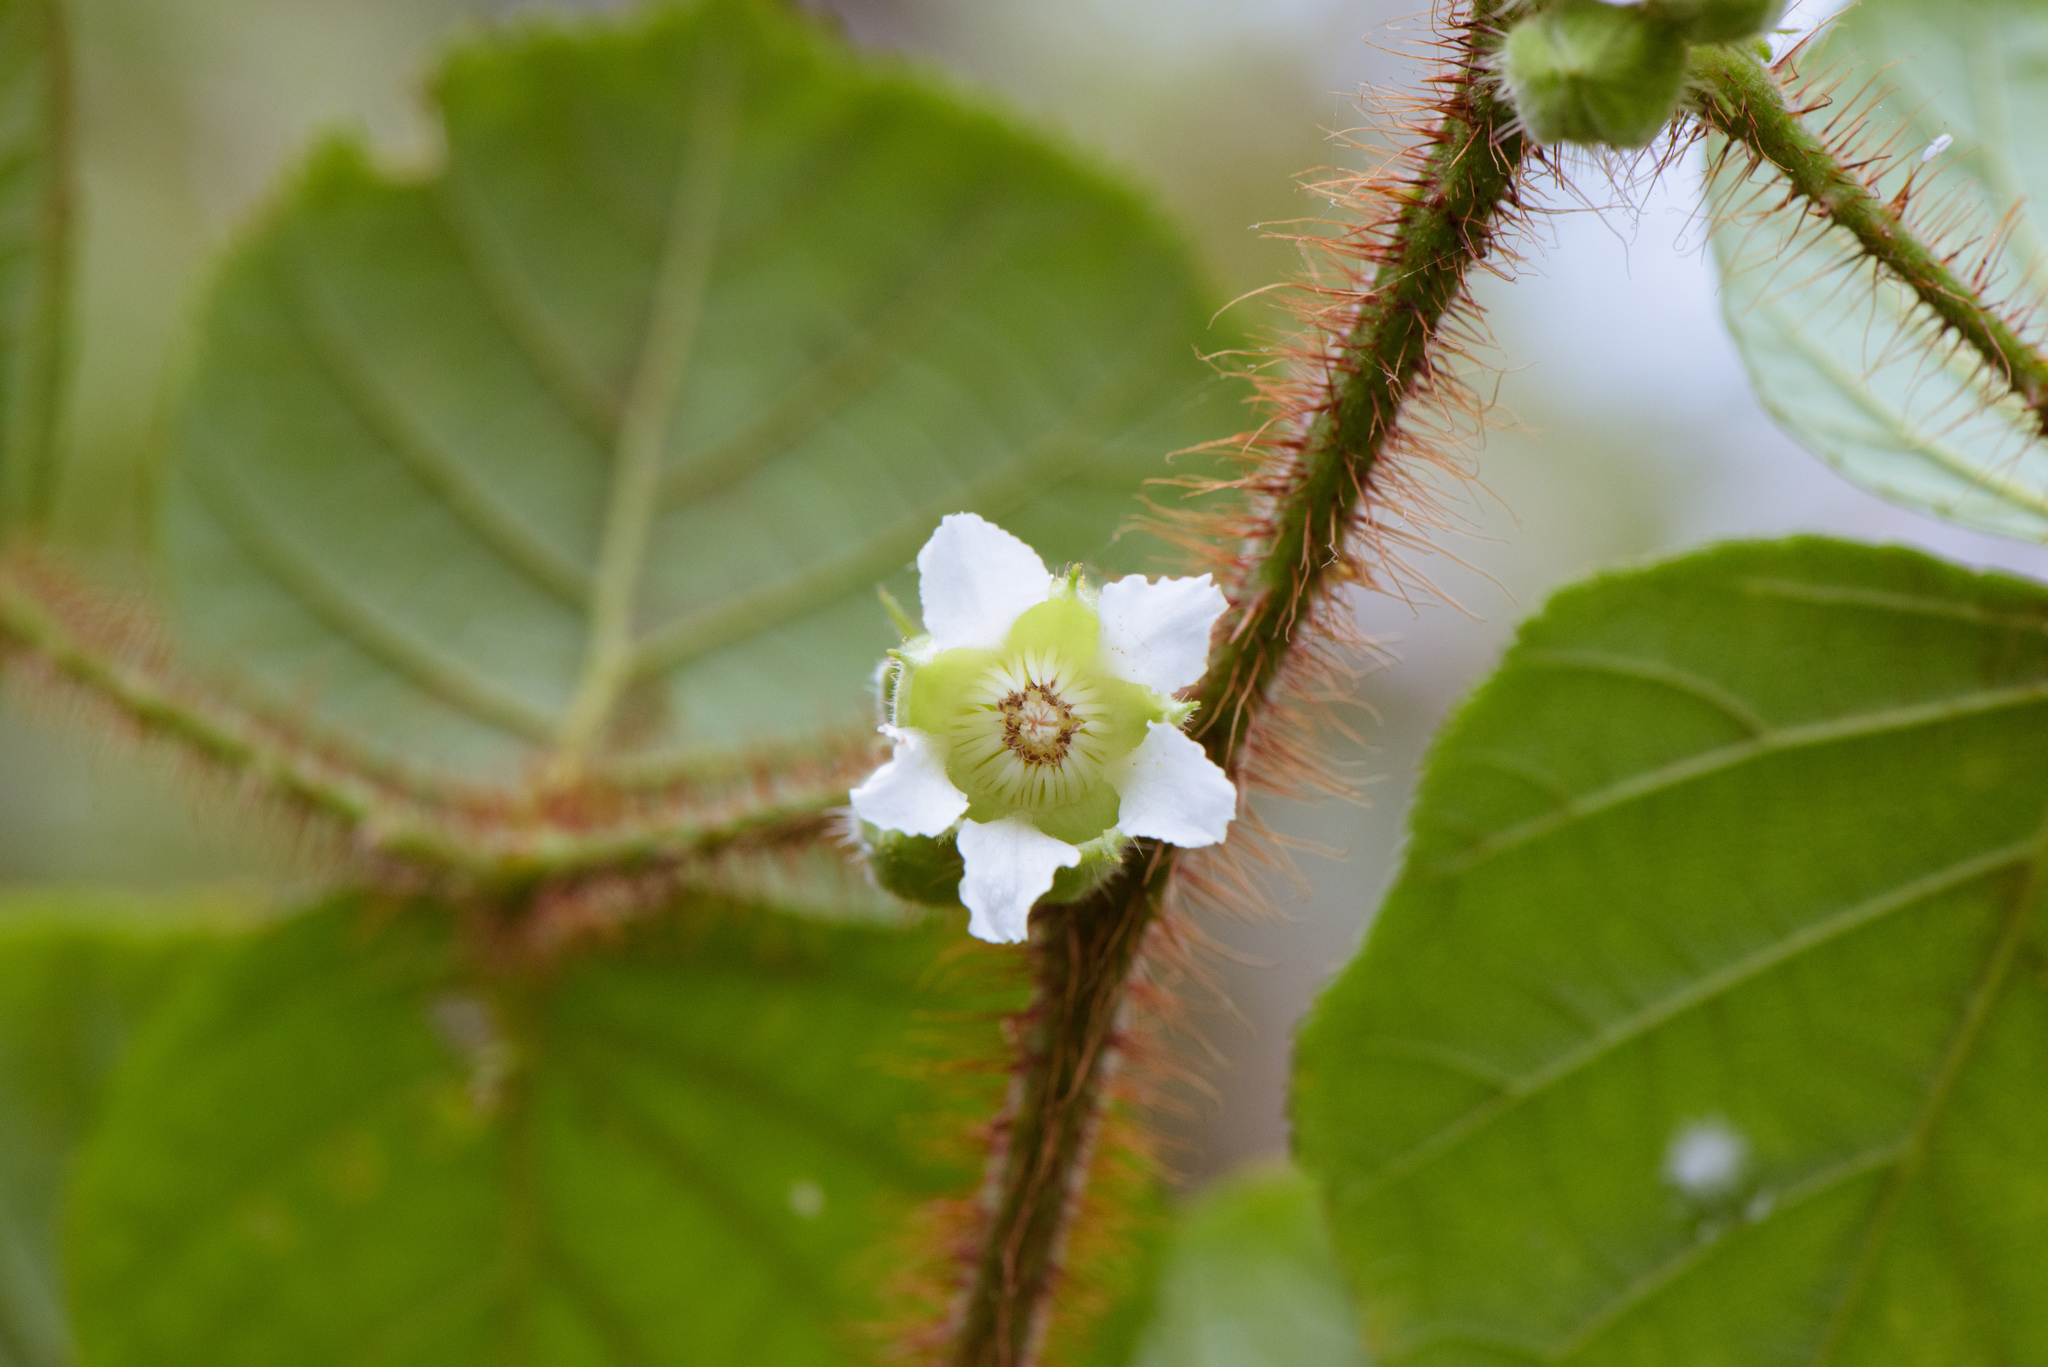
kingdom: Plantae
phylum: Tracheophyta
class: Magnoliopsida
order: Rosales
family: Rosaceae
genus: Rubus
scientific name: Rubus ellipticus
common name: Cheeseberry
